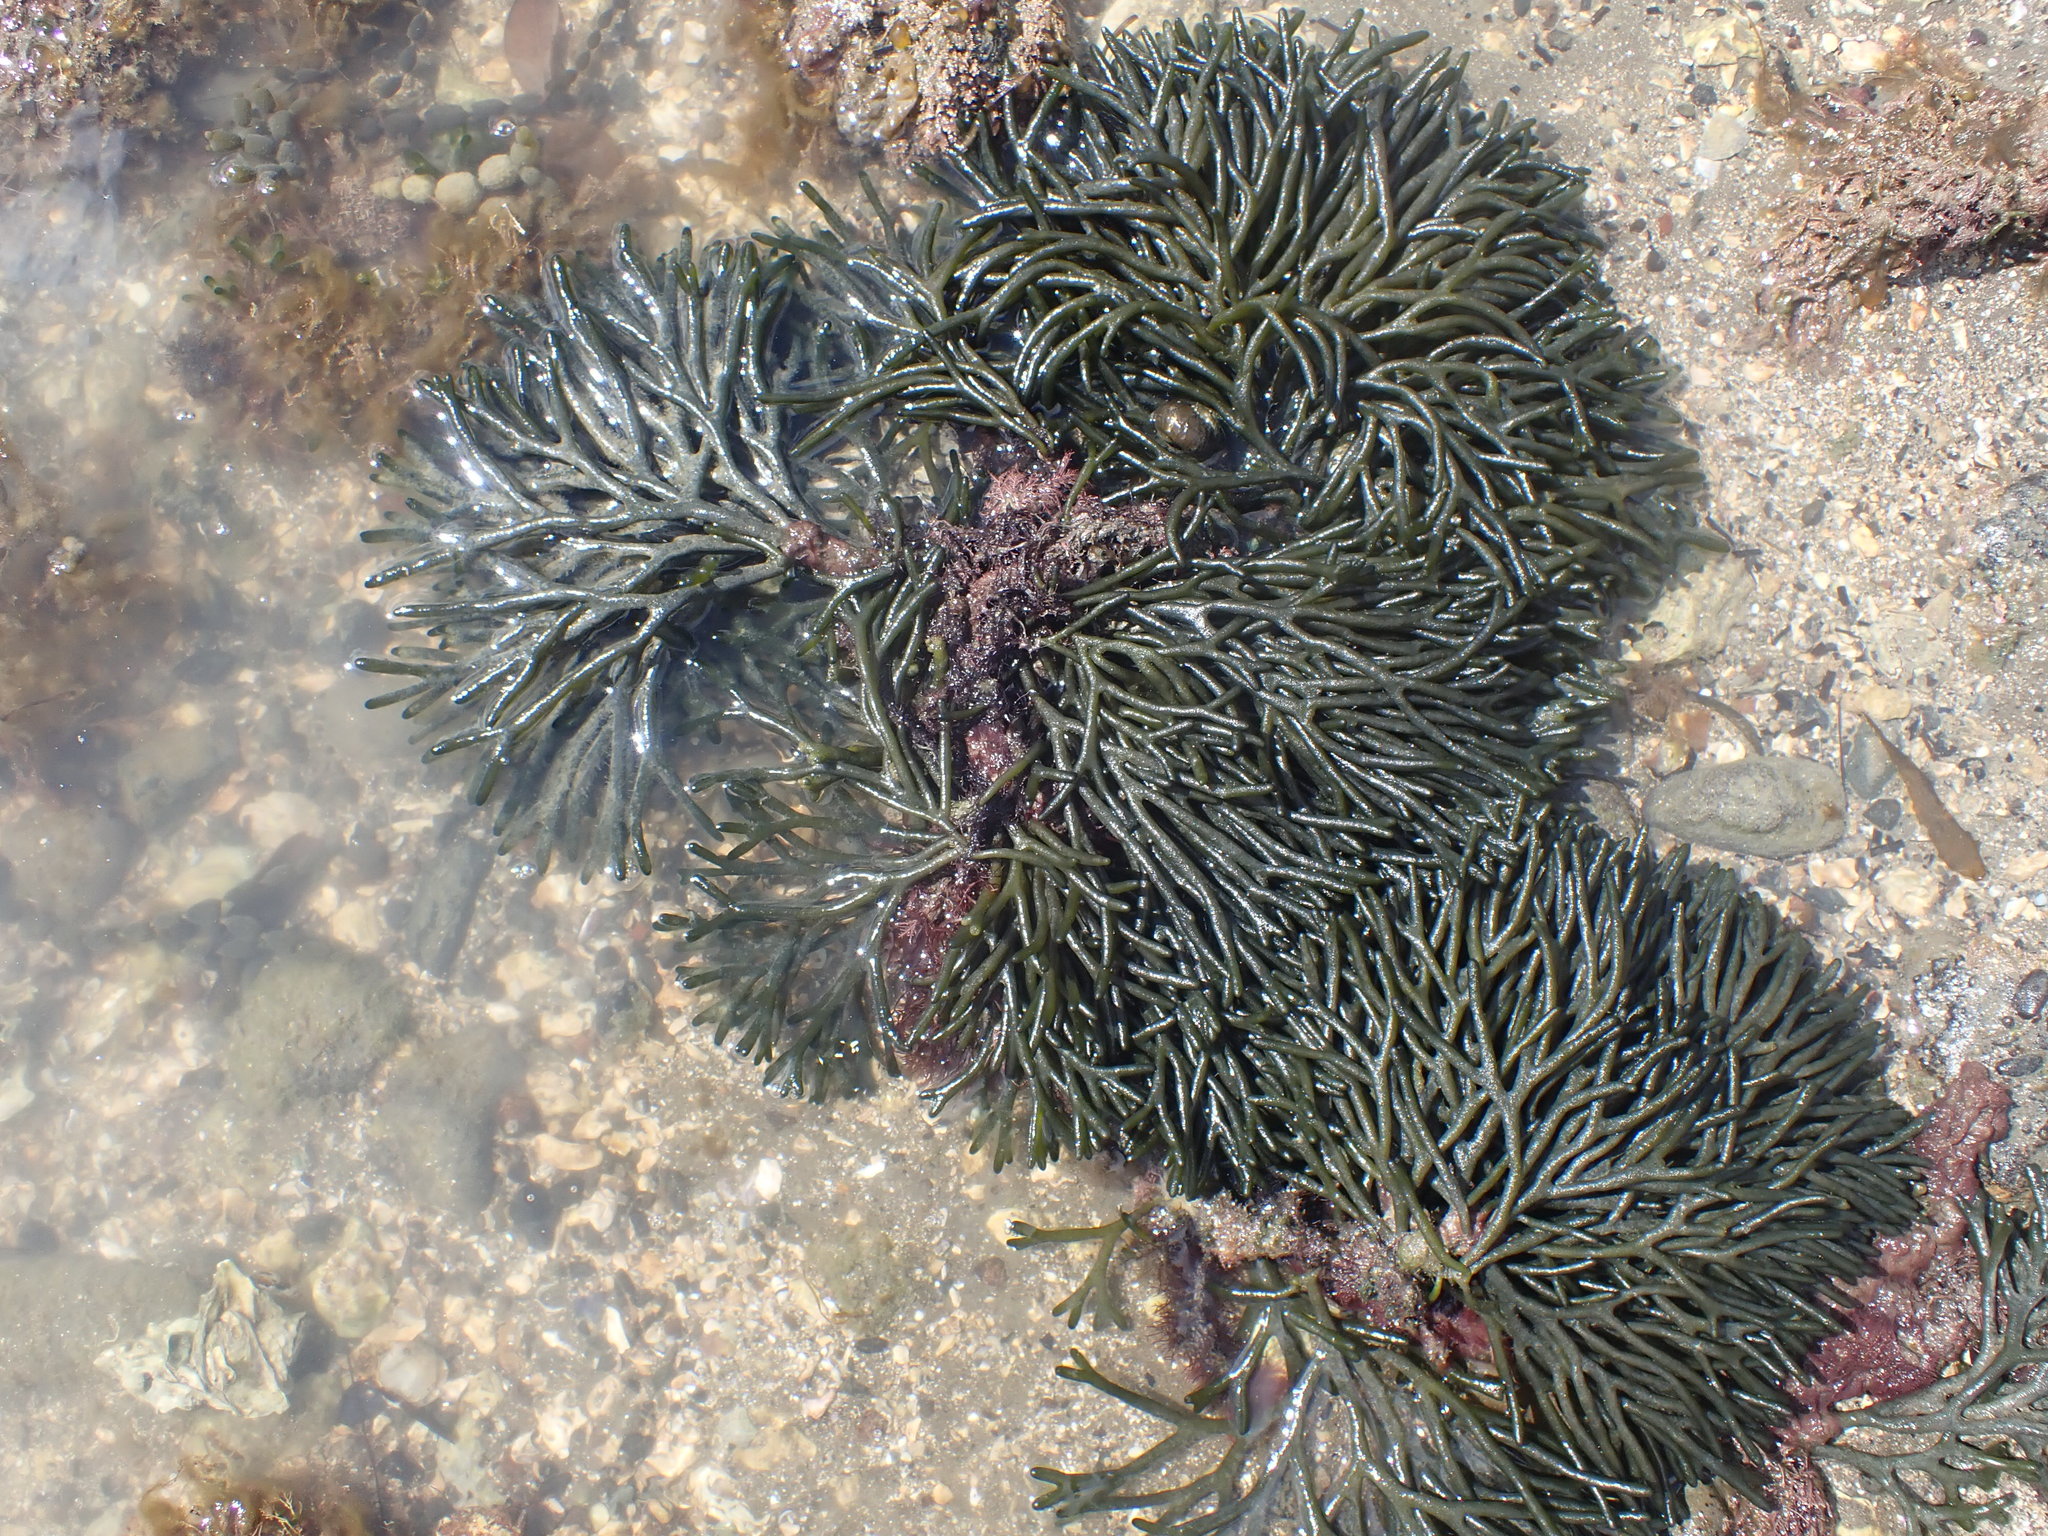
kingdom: Plantae
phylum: Chlorophyta
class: Ulvophyceae
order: Bryopsidales
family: Codiaceae
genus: Codium
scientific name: Codium fragile
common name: Dead man's fingers
